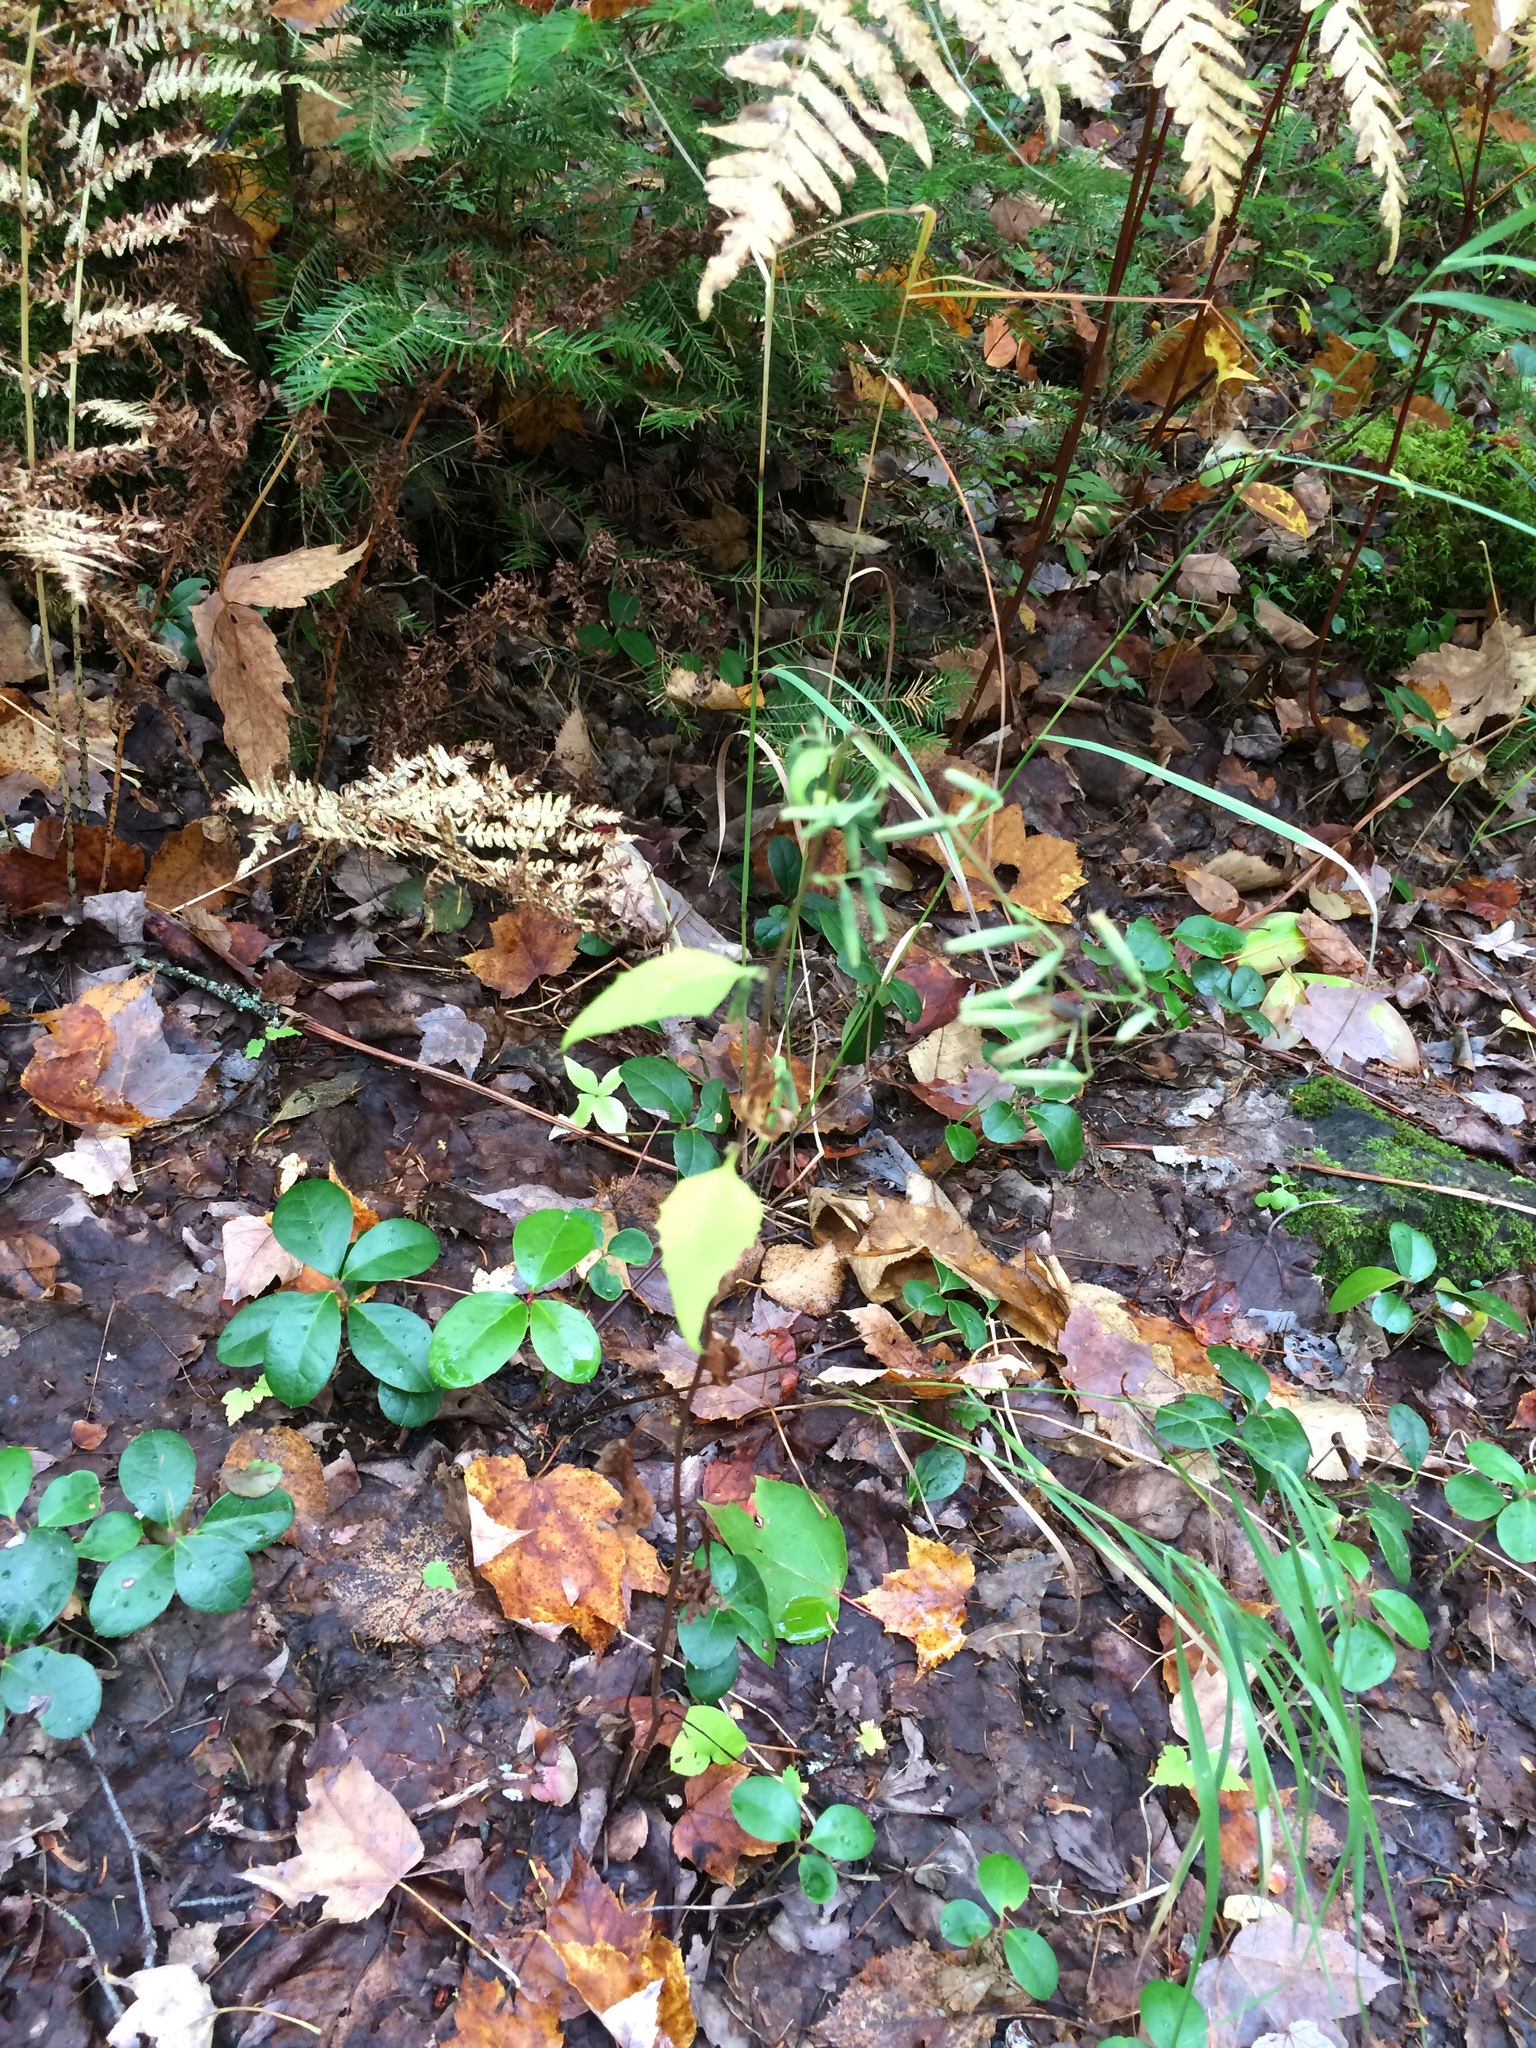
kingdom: Plantae
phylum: Tracheophyta
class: Magnoliopsida
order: Asterales
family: Asteraceae
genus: Nabalus
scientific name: Nabalus altissima
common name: Tall rattlesnakeroot
